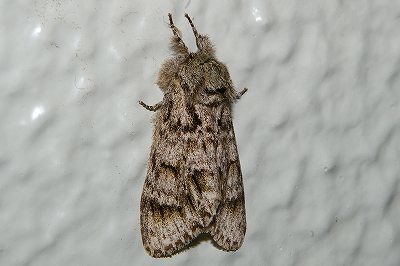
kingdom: Animalia
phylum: Arthropoda
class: Insecta
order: Lepidoptera
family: Notodontidae
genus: Pheosiopsis
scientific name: Pheosiopsis cinerea
